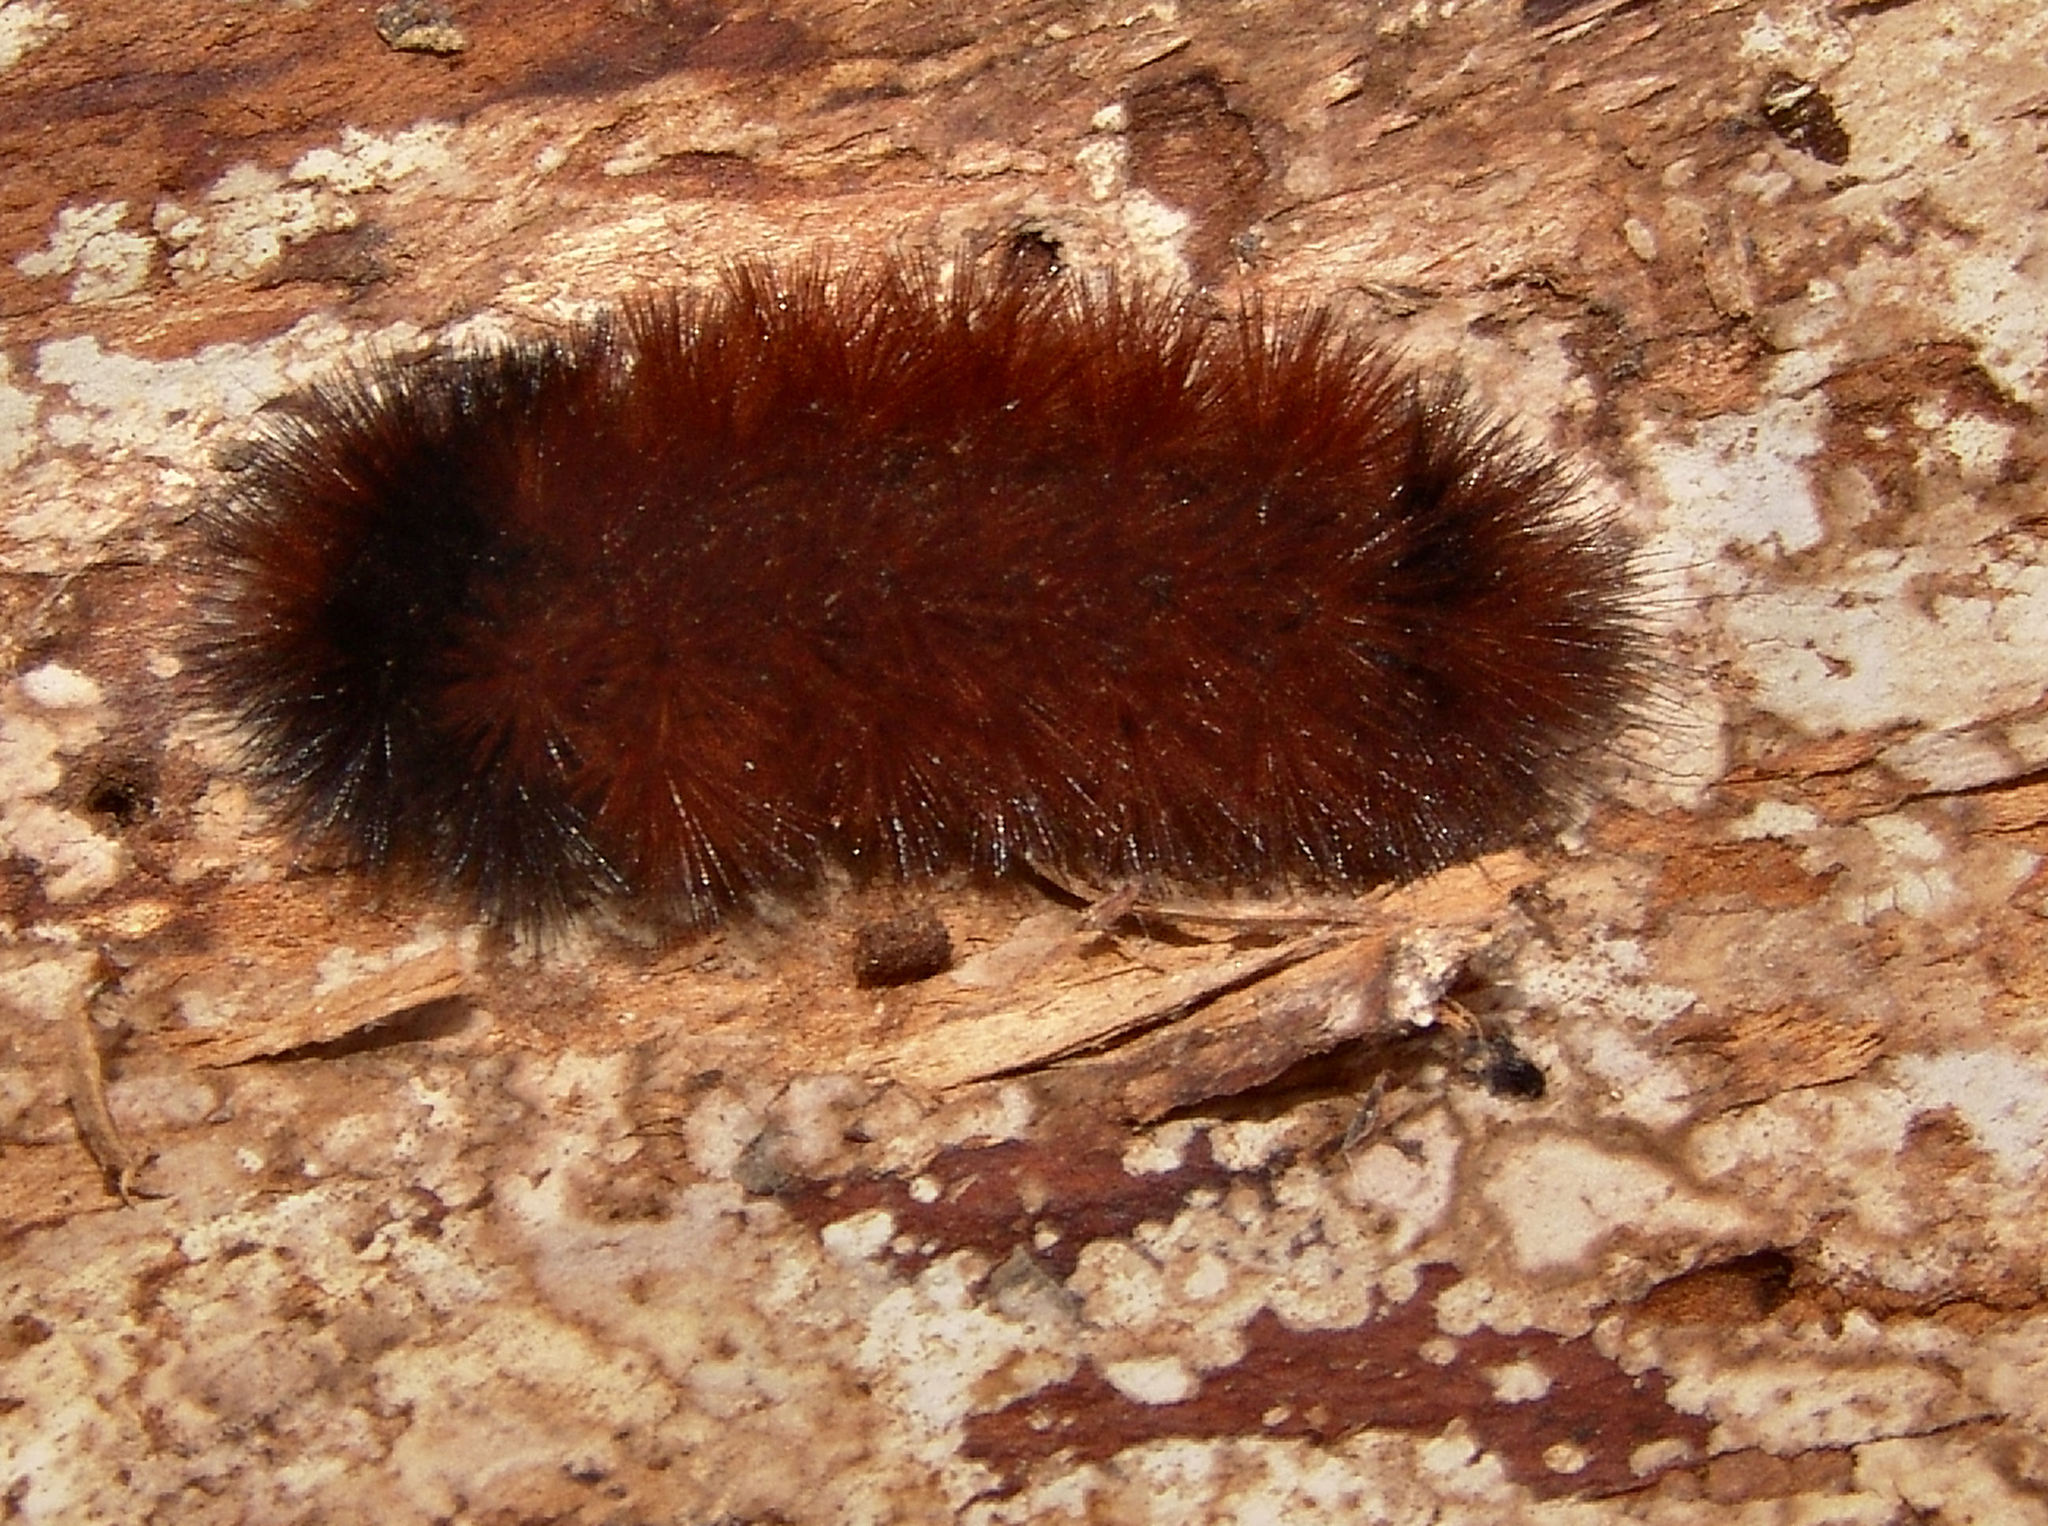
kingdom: Animalia
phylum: Arthropoda
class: Insecta
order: Lepidoptera
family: Erebidae
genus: Pyrrharctia
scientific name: Pyrrharctia isabella
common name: Isabella tiger moth
